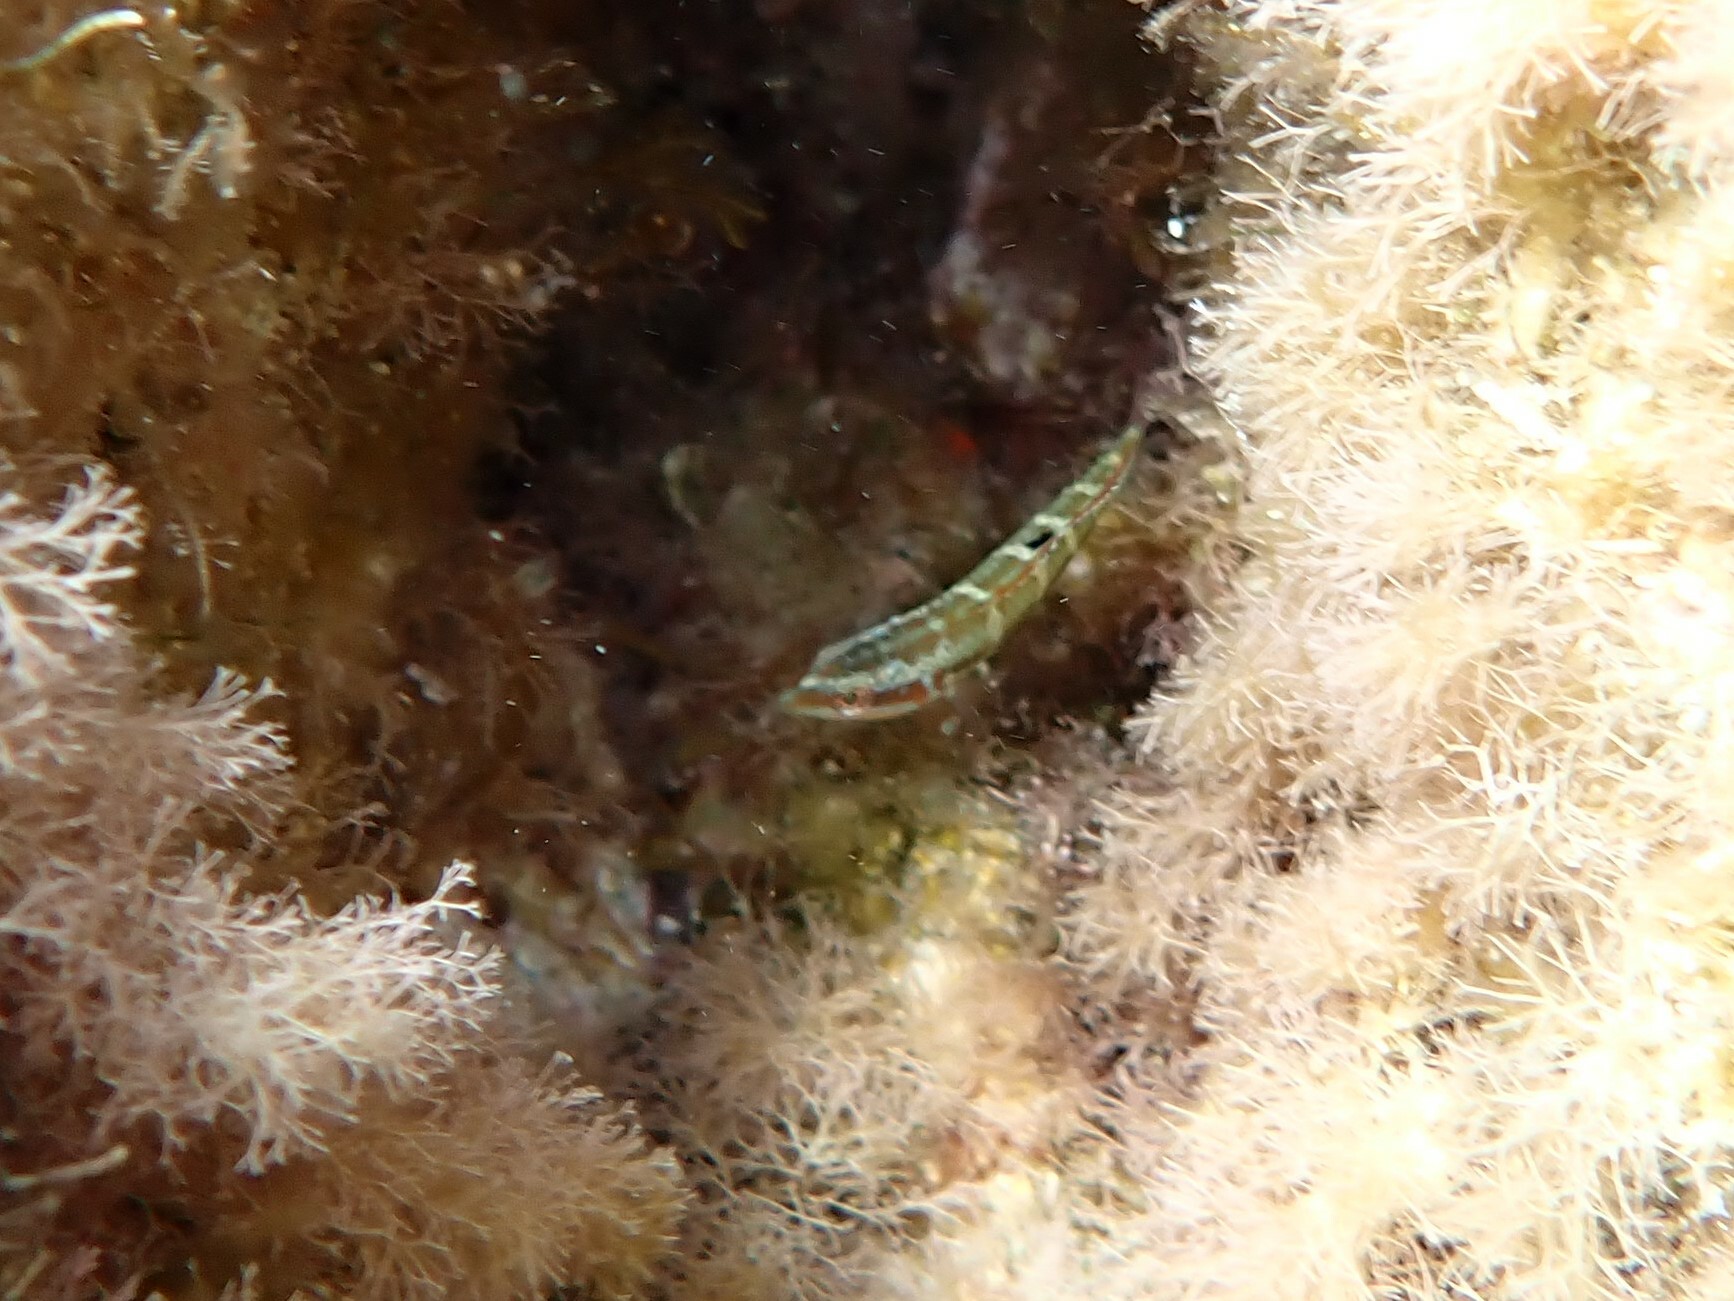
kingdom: Animalia
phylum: Chordata
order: Perciformes
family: Labridae
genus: Thalassoma
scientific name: Thalassoma pavo
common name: Ornate wrasse
